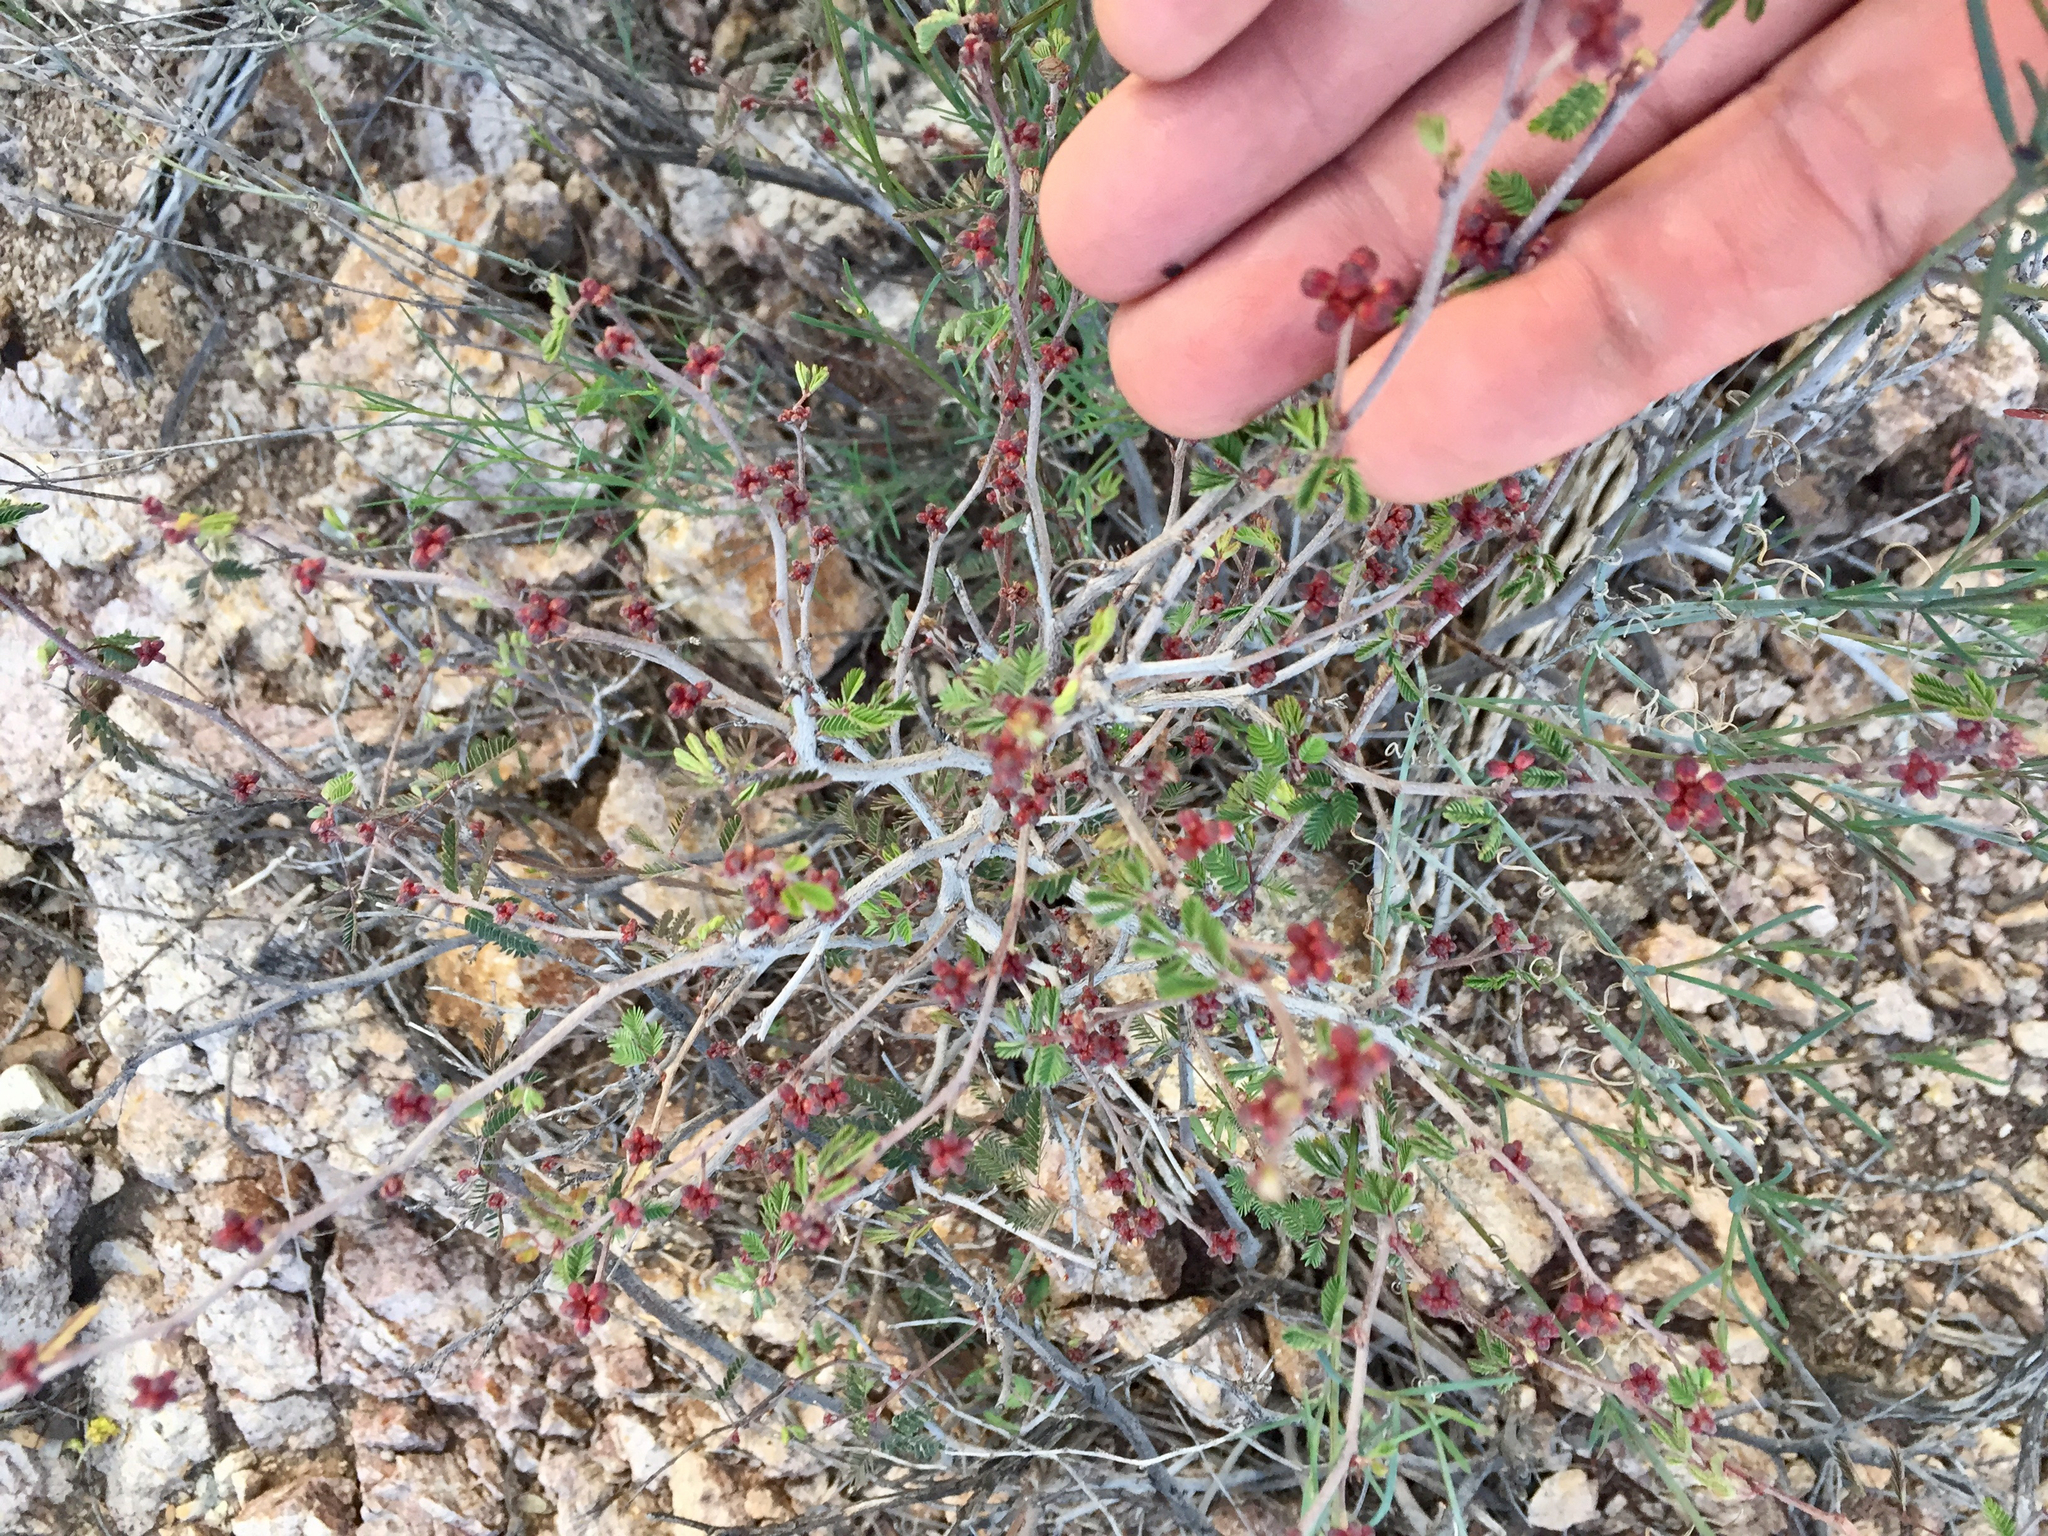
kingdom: Plantae
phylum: Tracheophyta
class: Magnoliopsida
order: Fabales
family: Fabaceae
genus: Calliandra
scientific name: Calliandra eriophylla
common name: Fairy-duster
